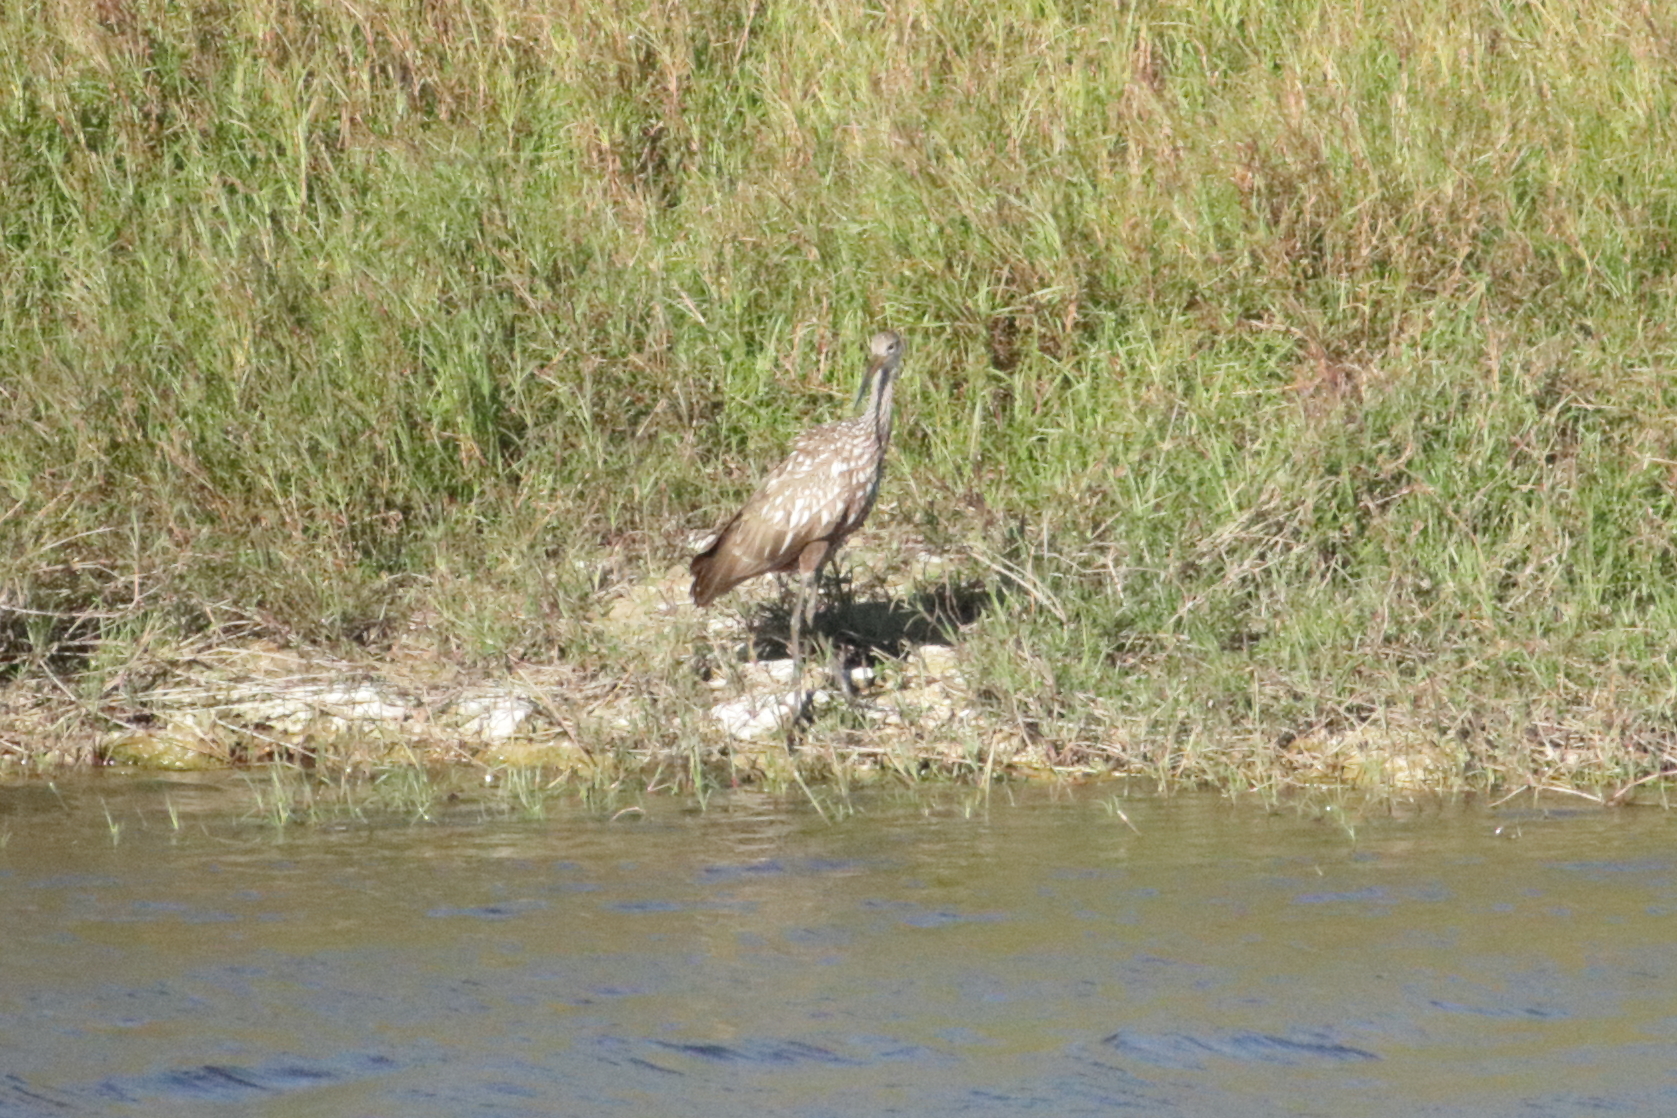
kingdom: Animalia
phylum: Chordata
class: Aves
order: Gruiformes
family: Aramidae
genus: Aramus
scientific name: Aramus guarauna
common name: Limpkin
